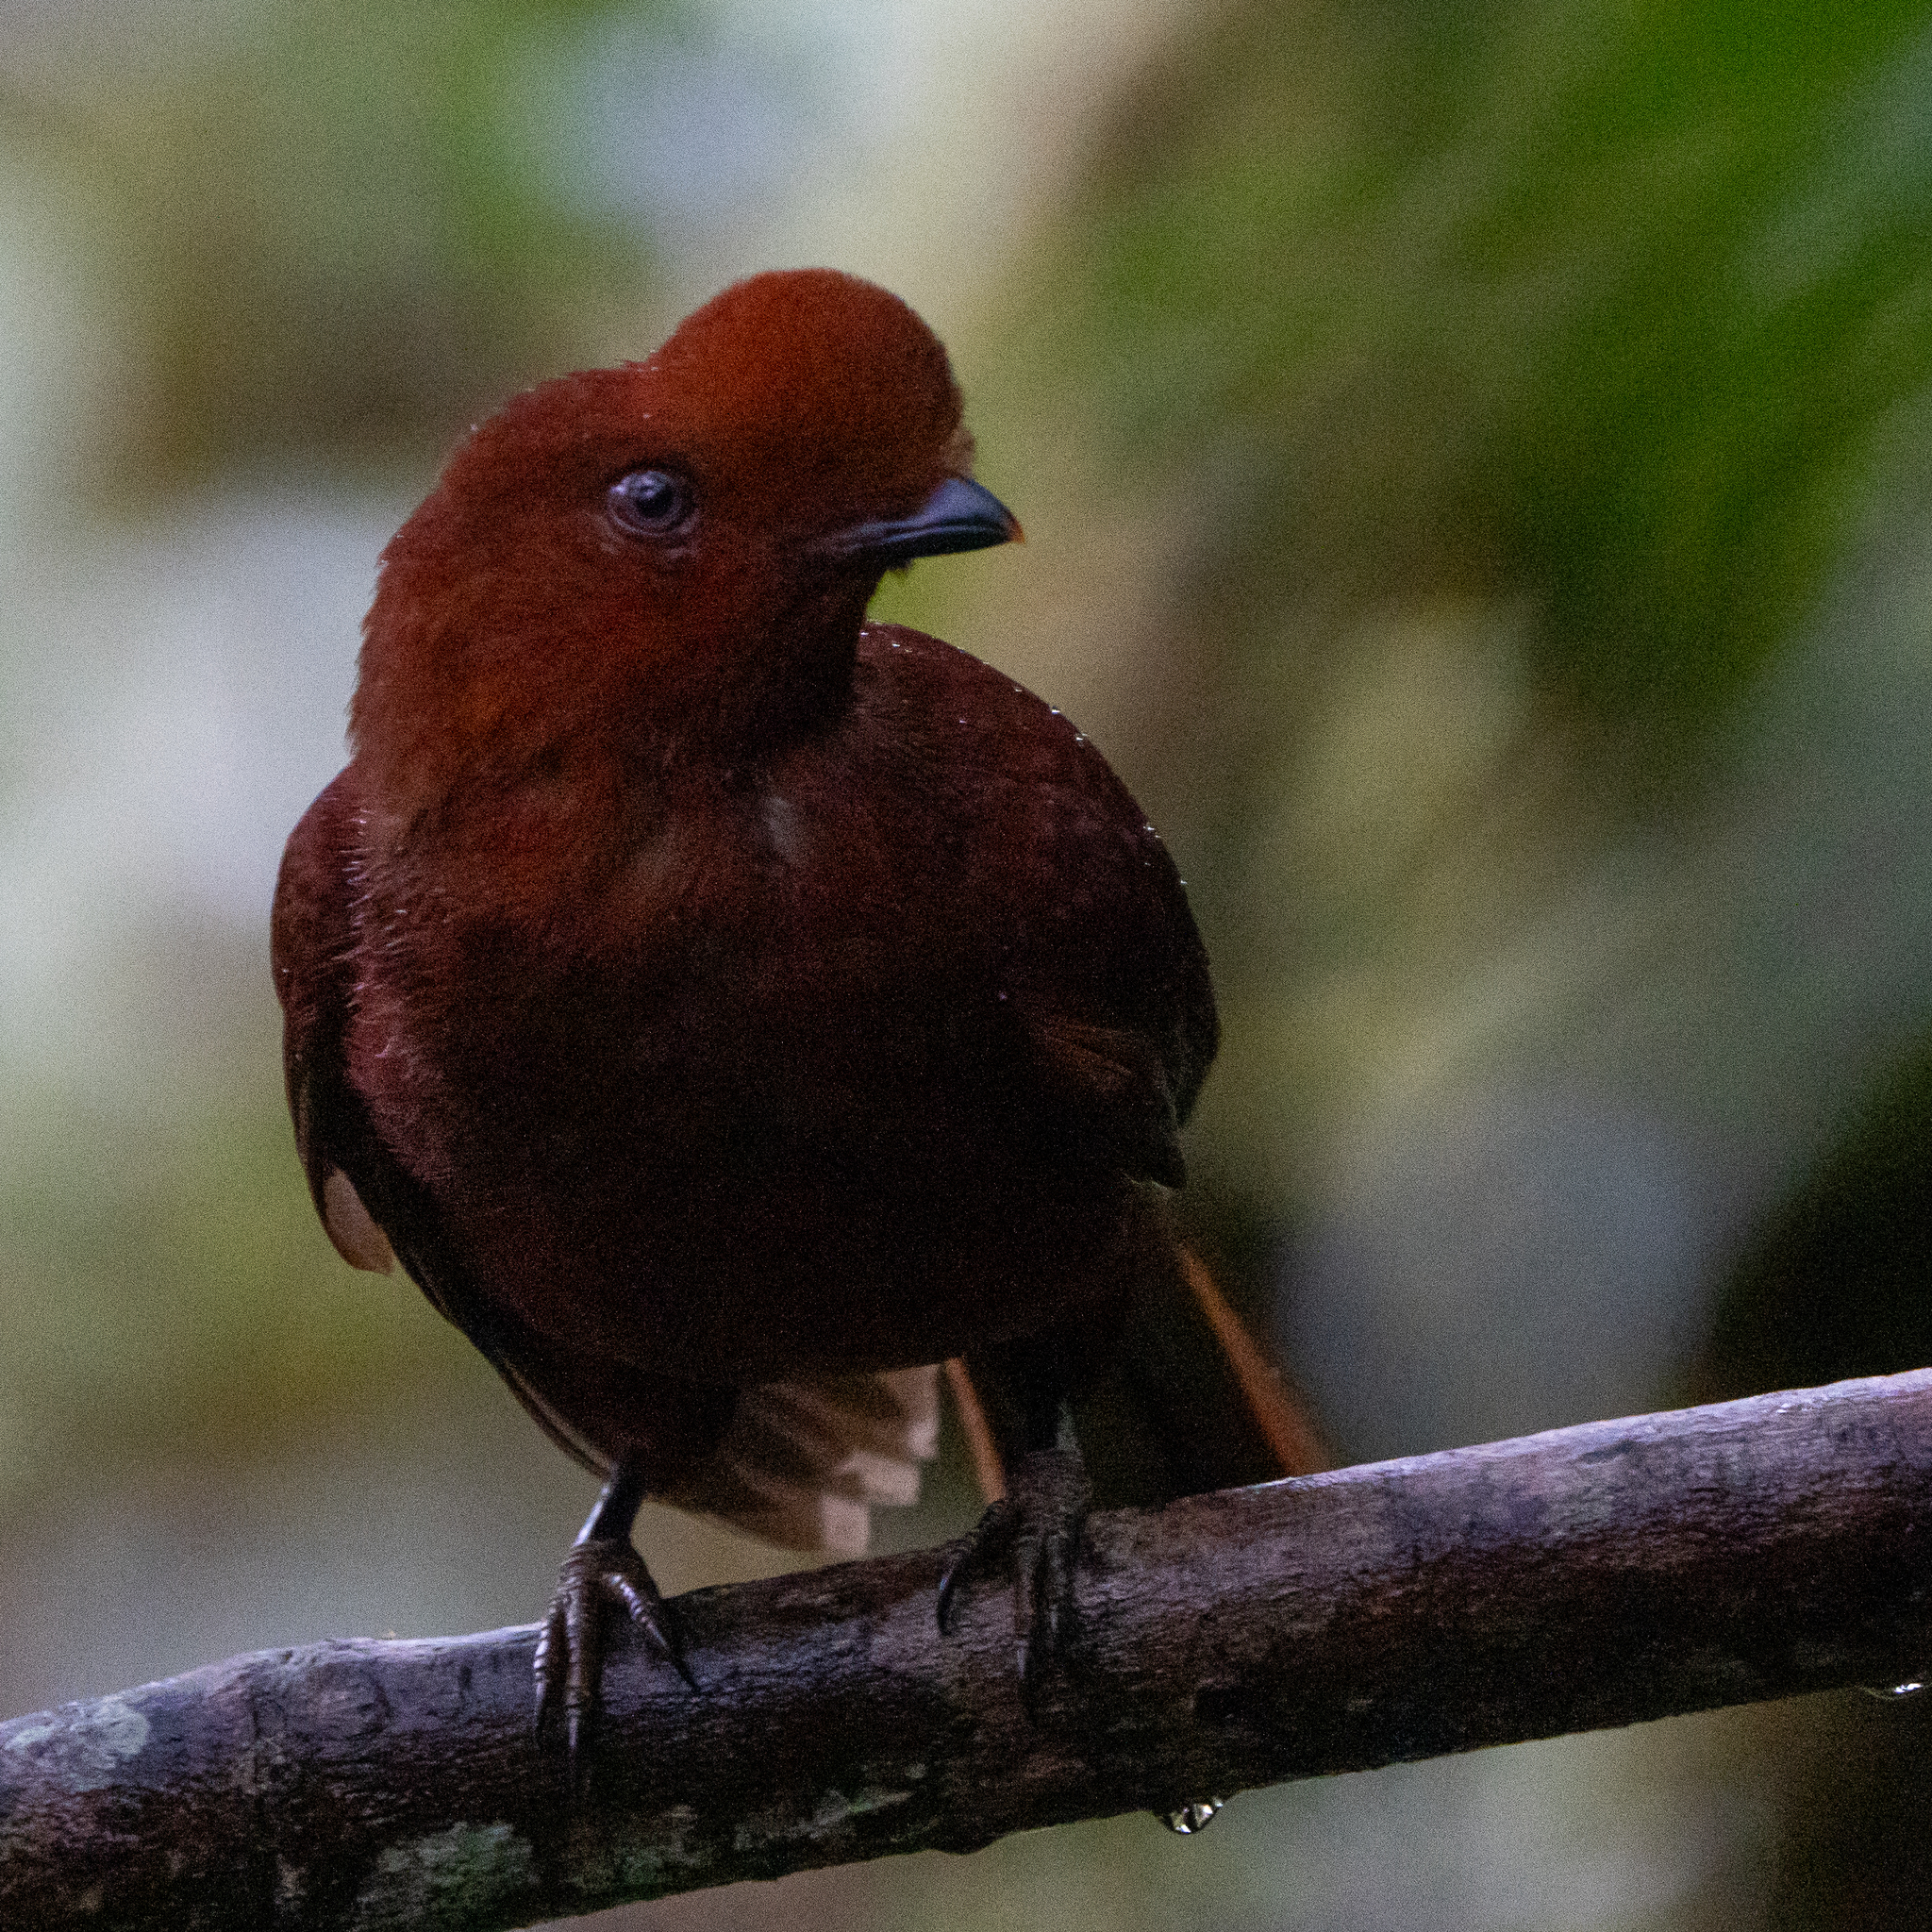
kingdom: Animalia
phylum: Chordata
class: Aves
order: Passeriformes
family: Cotingidae
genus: Rupicola
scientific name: Rupicola peruvianus
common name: Andean cock-of-the-rock
